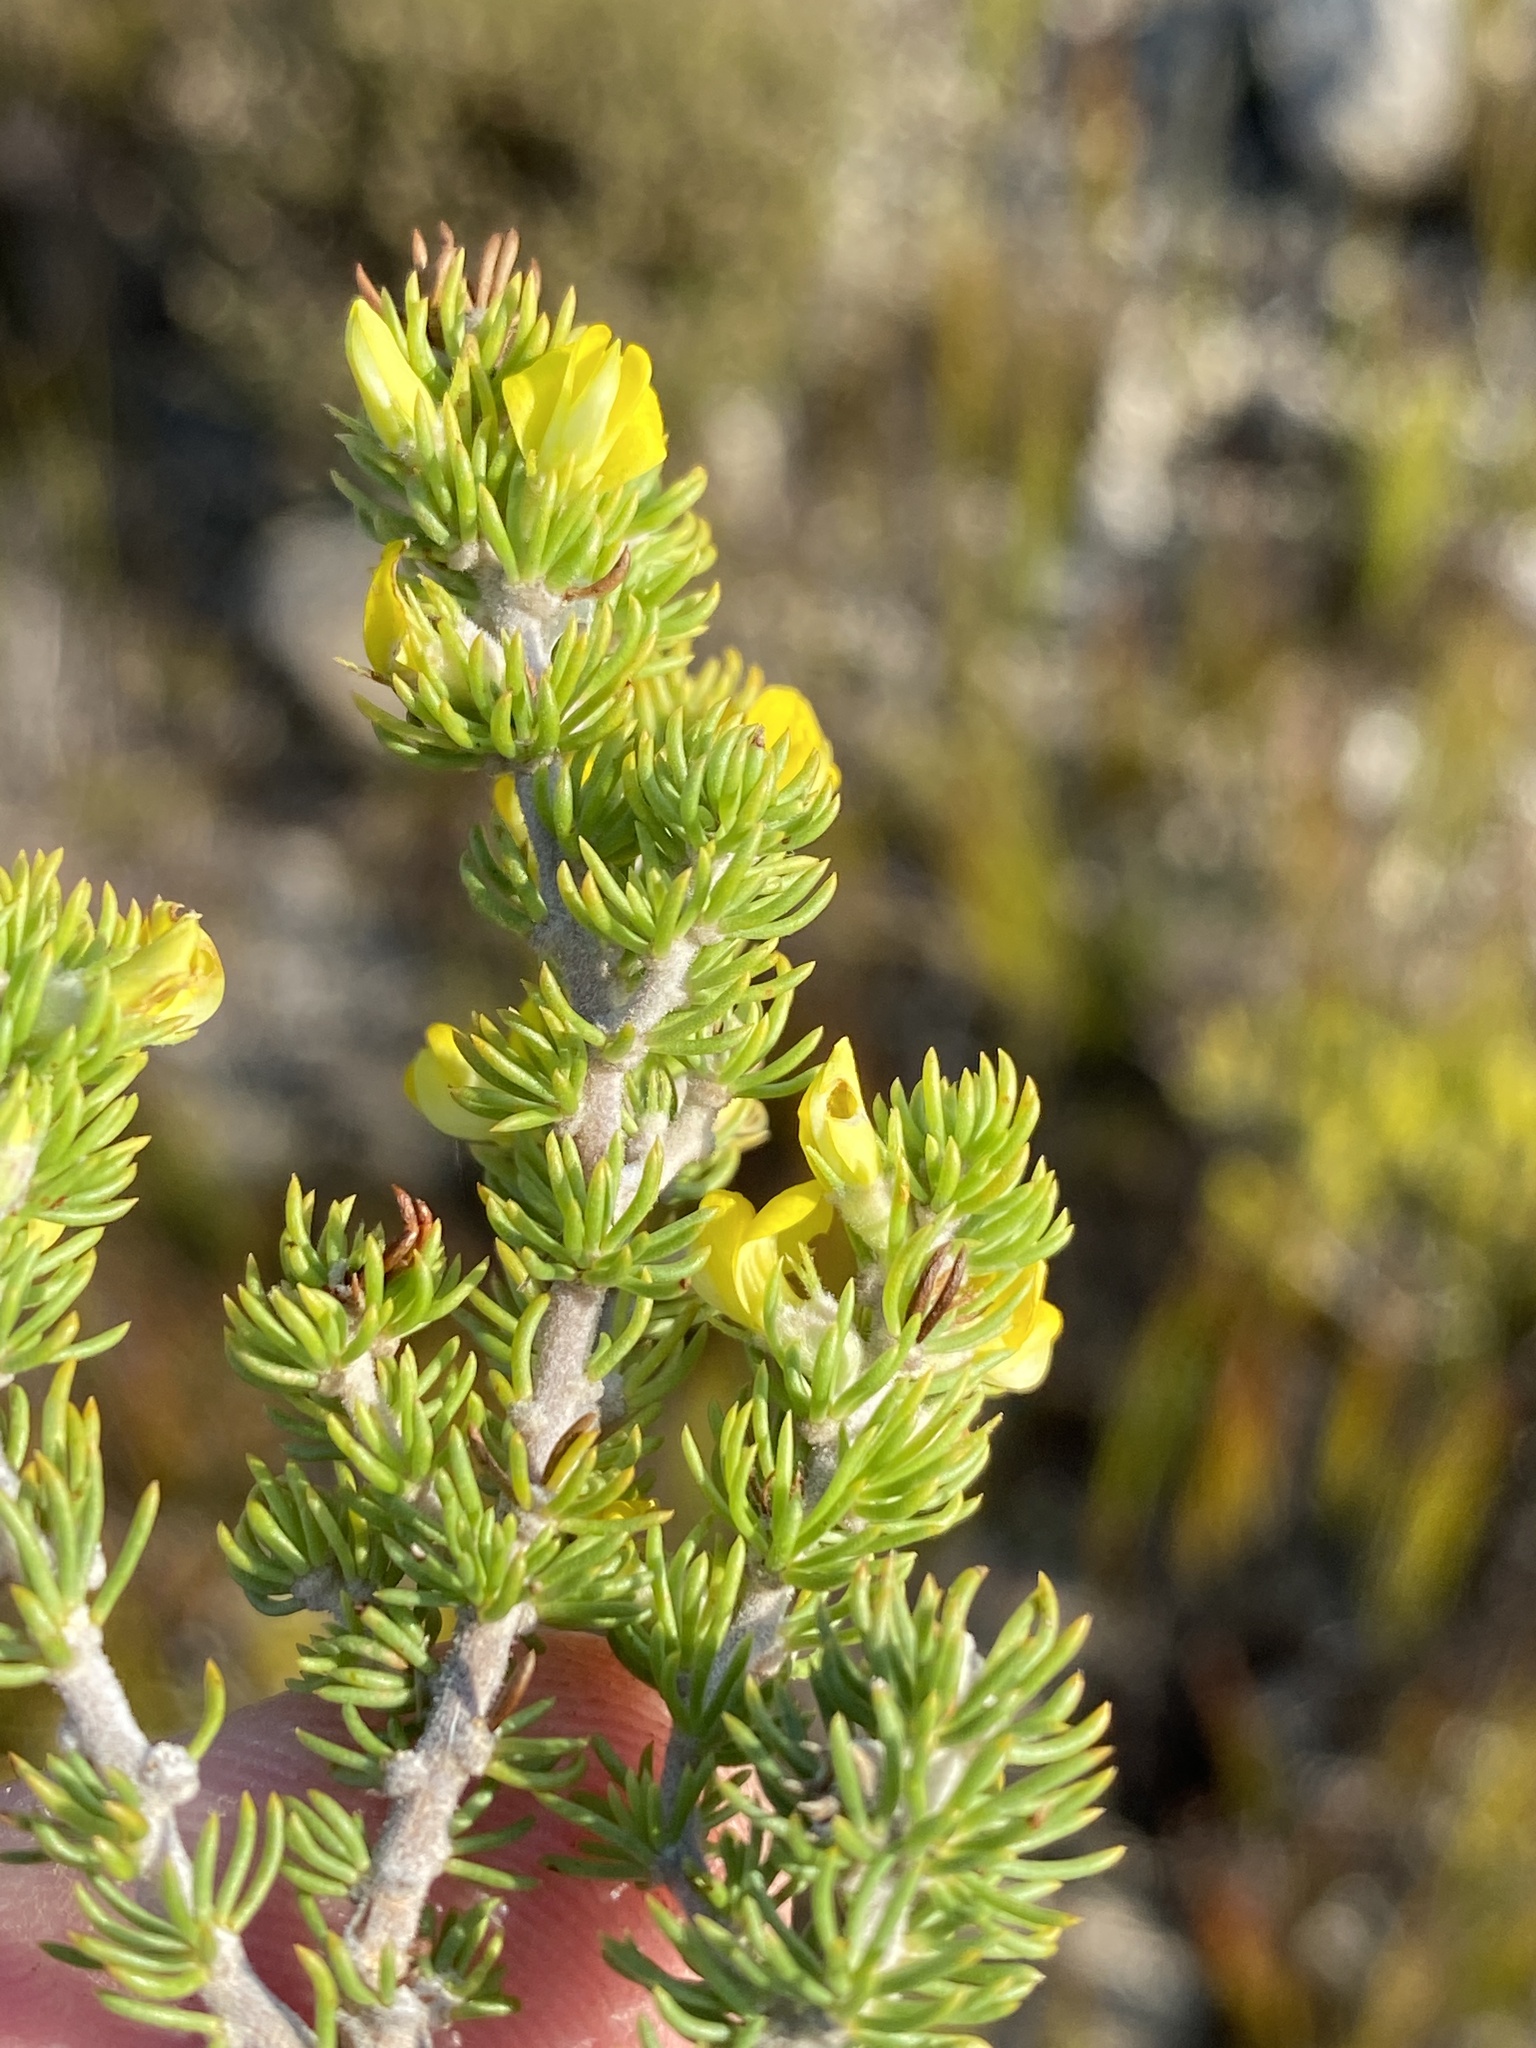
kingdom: Plantae
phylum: Tracheophyta
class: Magnoliopsida
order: Fabales
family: Fabaceae
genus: Aspalathus
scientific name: Aspalathus calcarea
